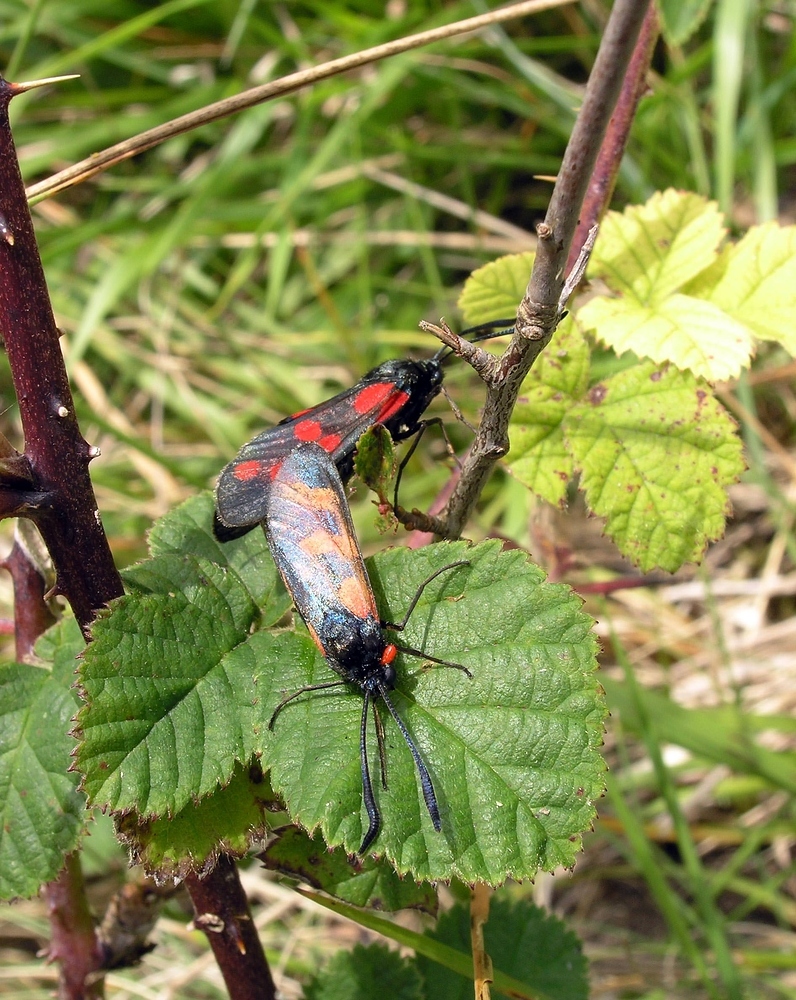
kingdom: Animalia
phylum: Arthropoda
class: Insecta
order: Lepidoptera
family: Zygaenidae
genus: Zygaena
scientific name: Zygaena filipendulae
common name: Six-spot burnet
